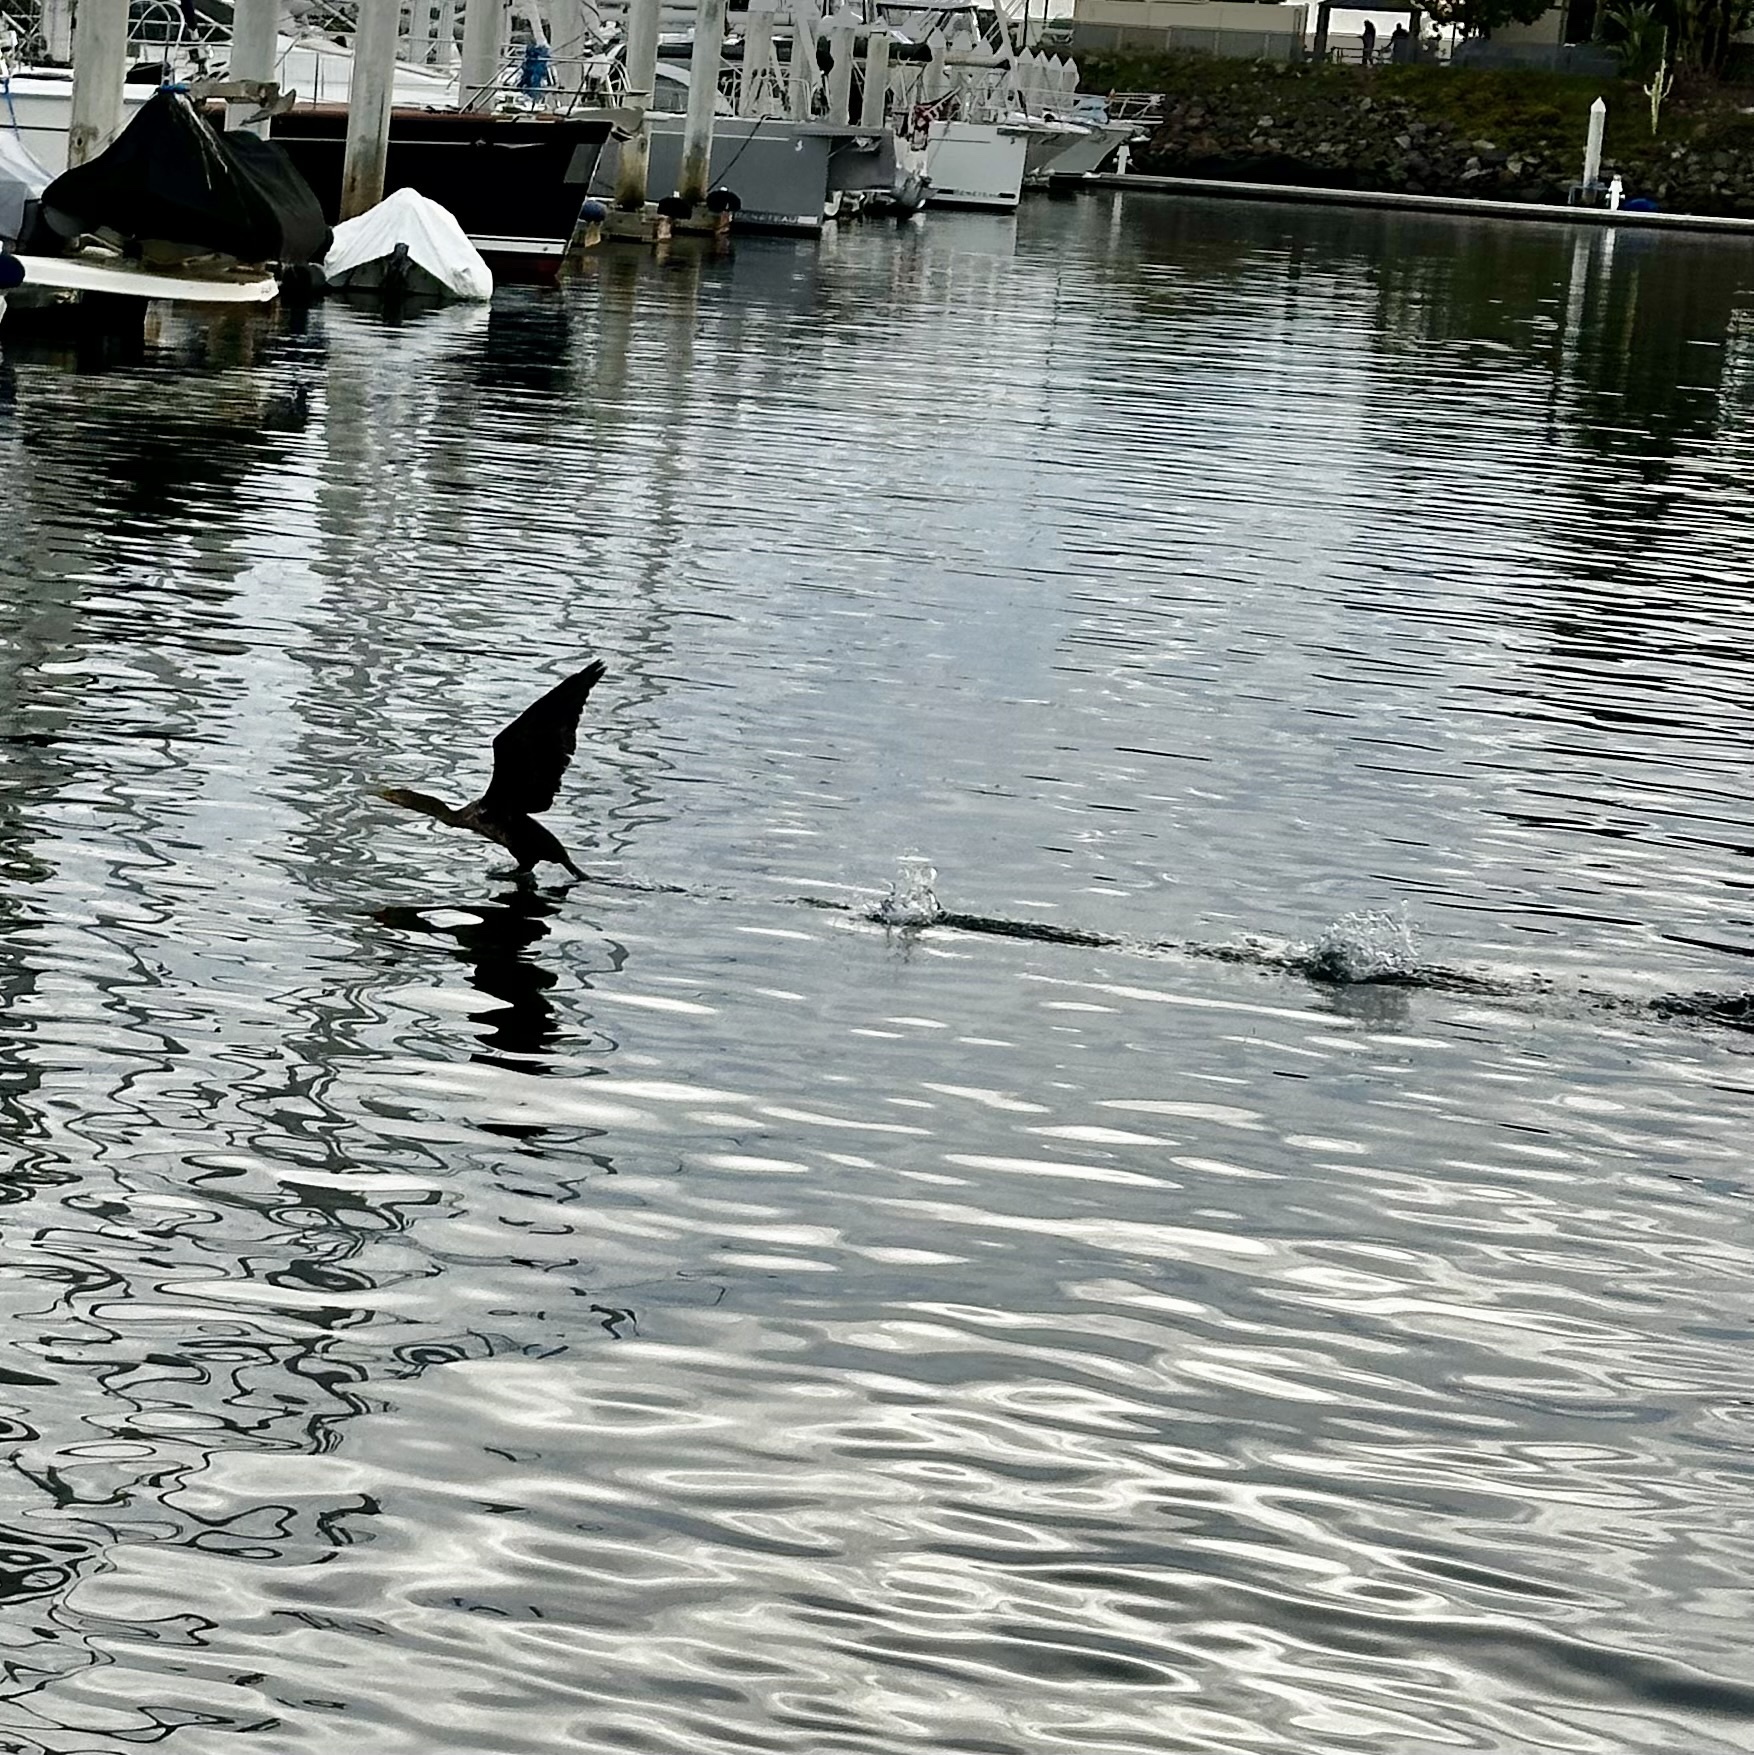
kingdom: Animalia
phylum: Chordata
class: Aves
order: Suliformes
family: Phalacrocoracidae
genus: Phalacrocorax
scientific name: Phalacrocorax auritus
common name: Double-crested cormorant
